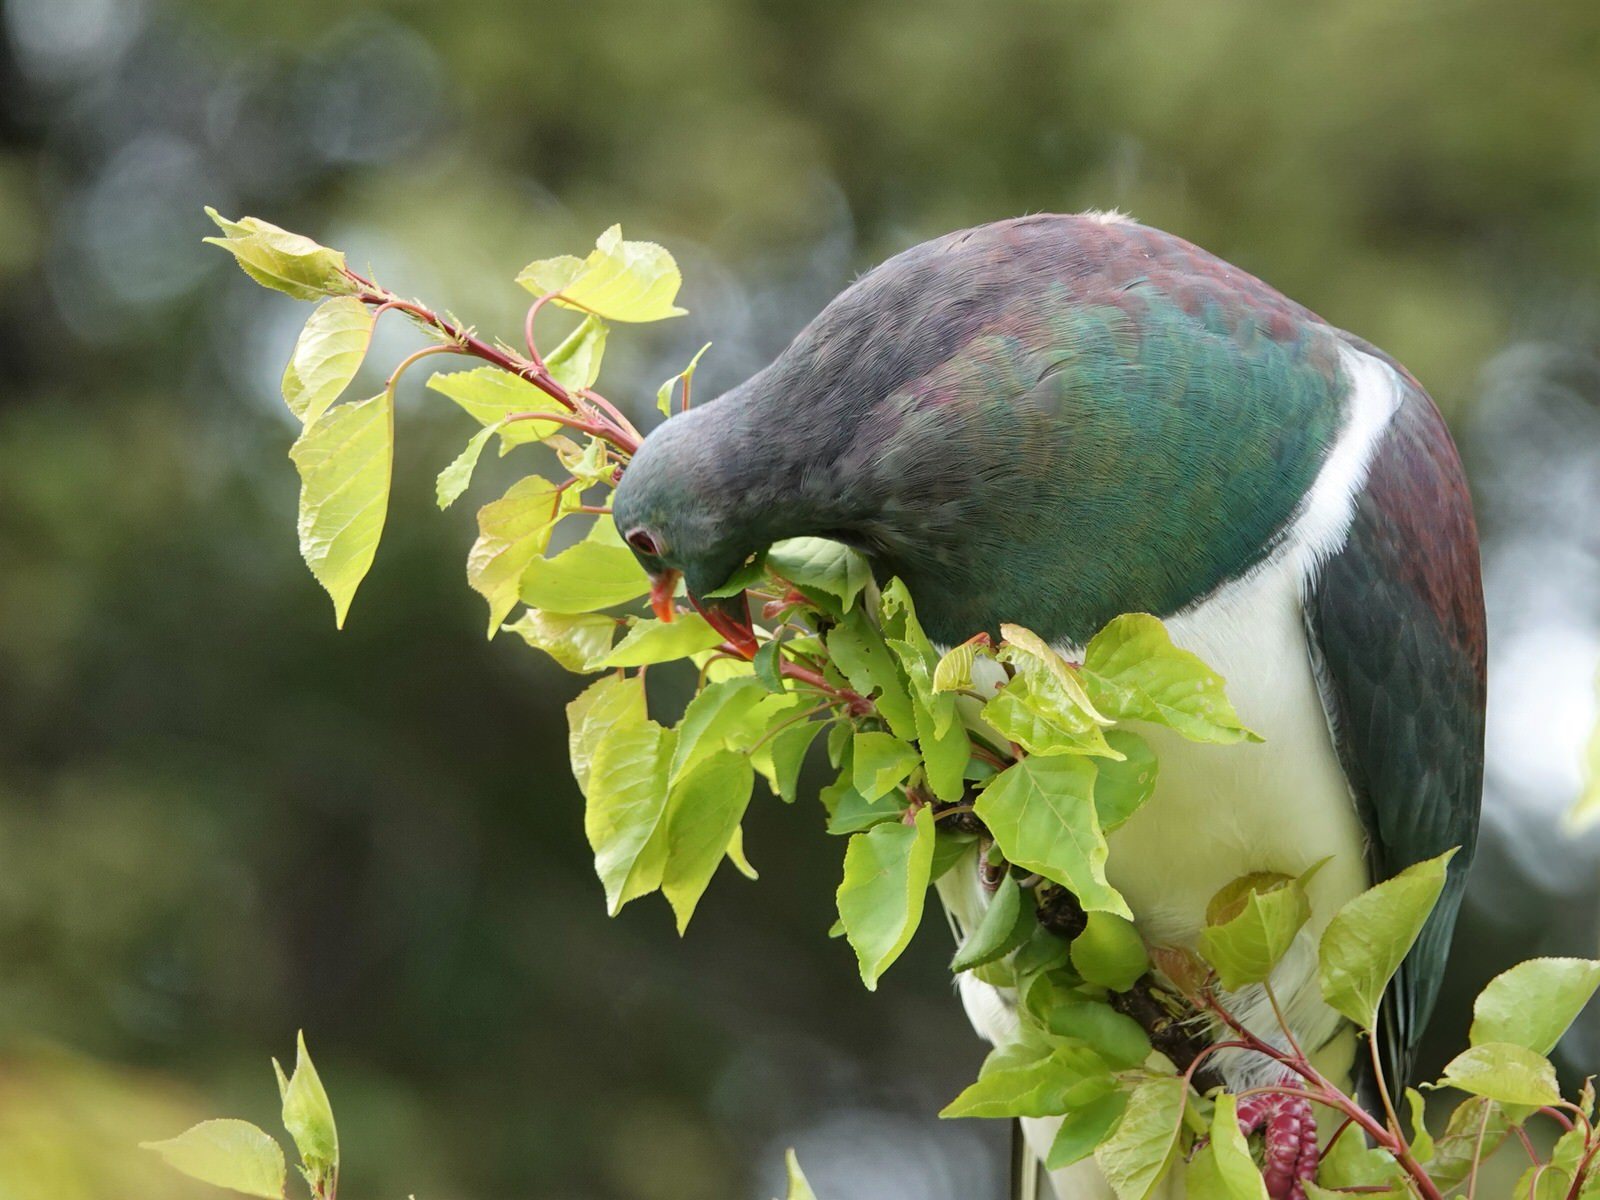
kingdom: Animalia
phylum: Chordata
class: Aves
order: Columbiformes
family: Columbidae
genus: Hemiphaga
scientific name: Hemiphaga novaeseelandiae
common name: New zealand pigeon
